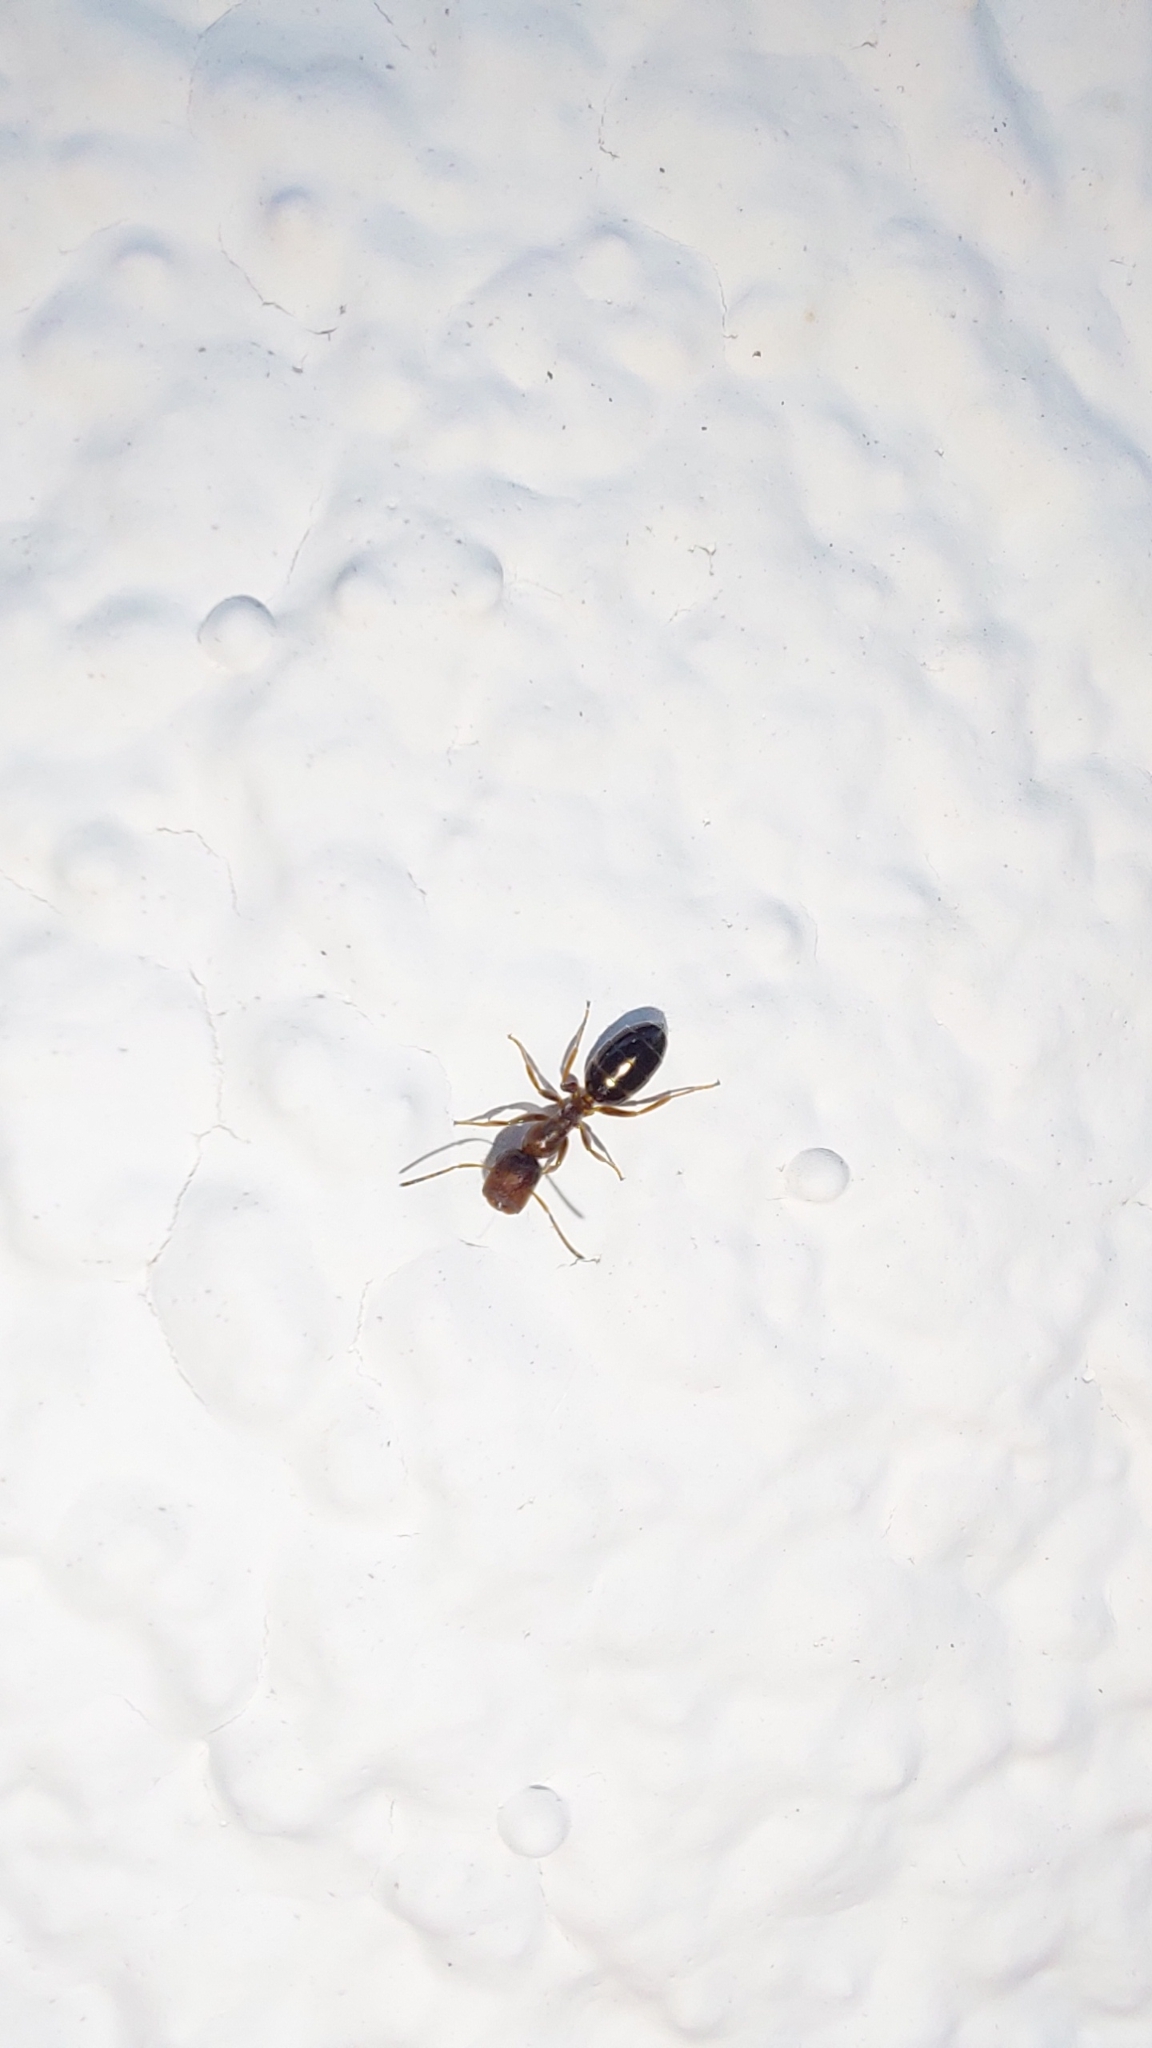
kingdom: Animalia
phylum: Arthropoda
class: Insecta
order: Hymenoptera
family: Formicidae
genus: Camponotus
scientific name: Camponotus truncatus
